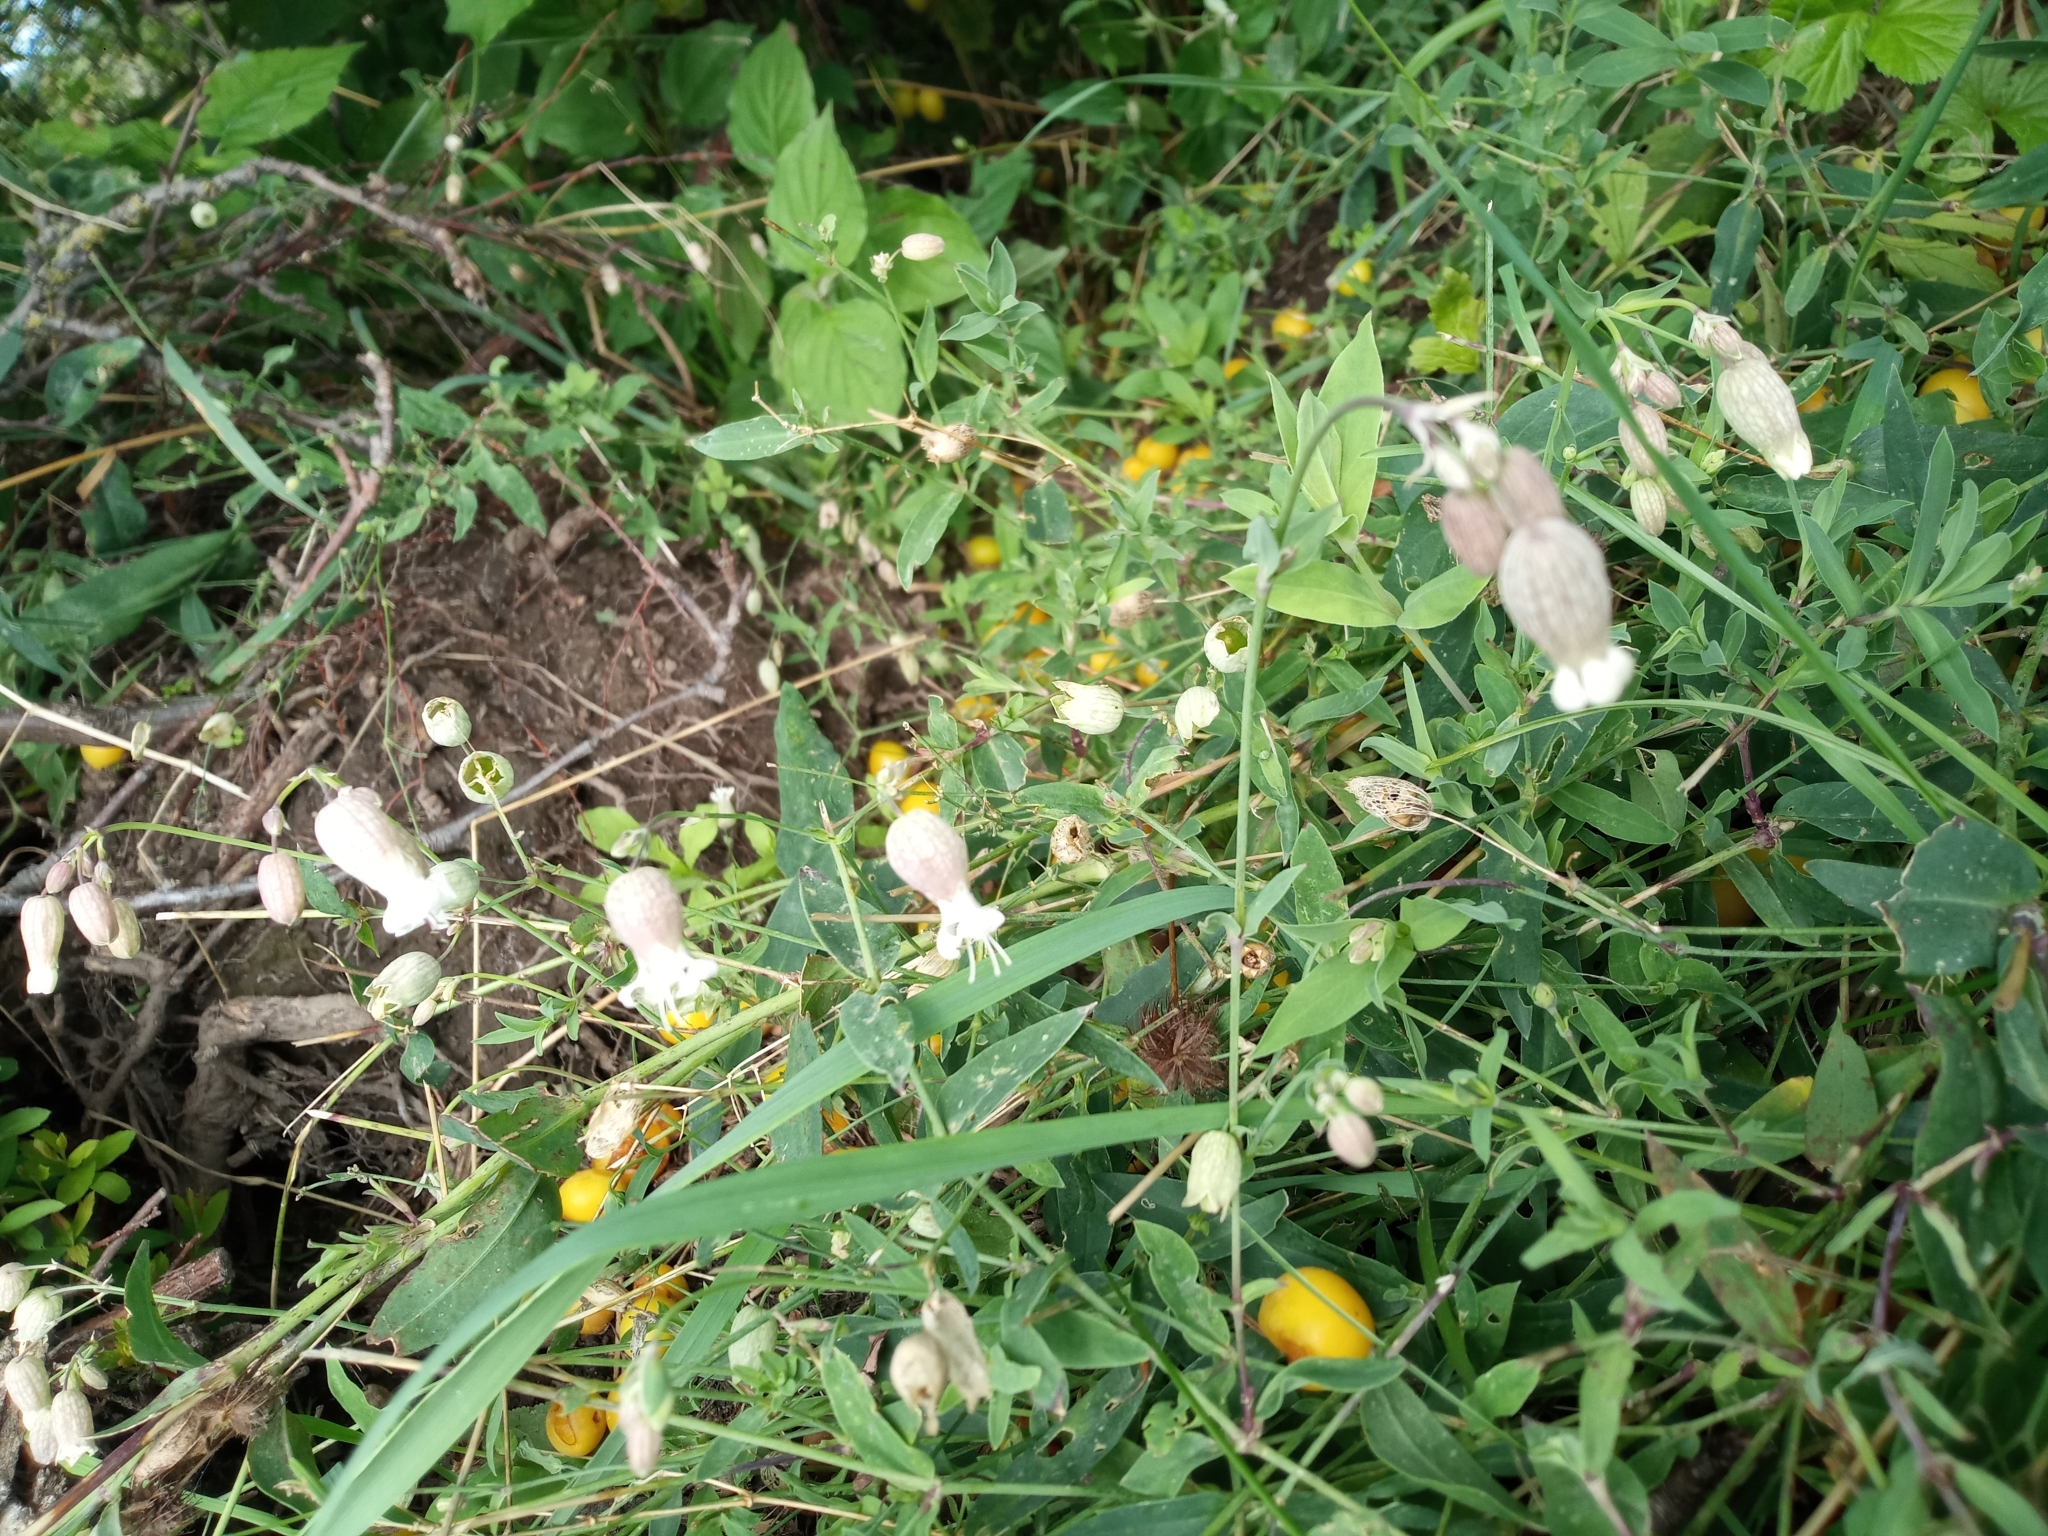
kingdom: Plantae
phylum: Tracheophyta
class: Magnoliopsida
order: Caryophyllales
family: Caryophyllaceae
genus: Silene
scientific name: Silene vulgaris
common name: Bladder campion
